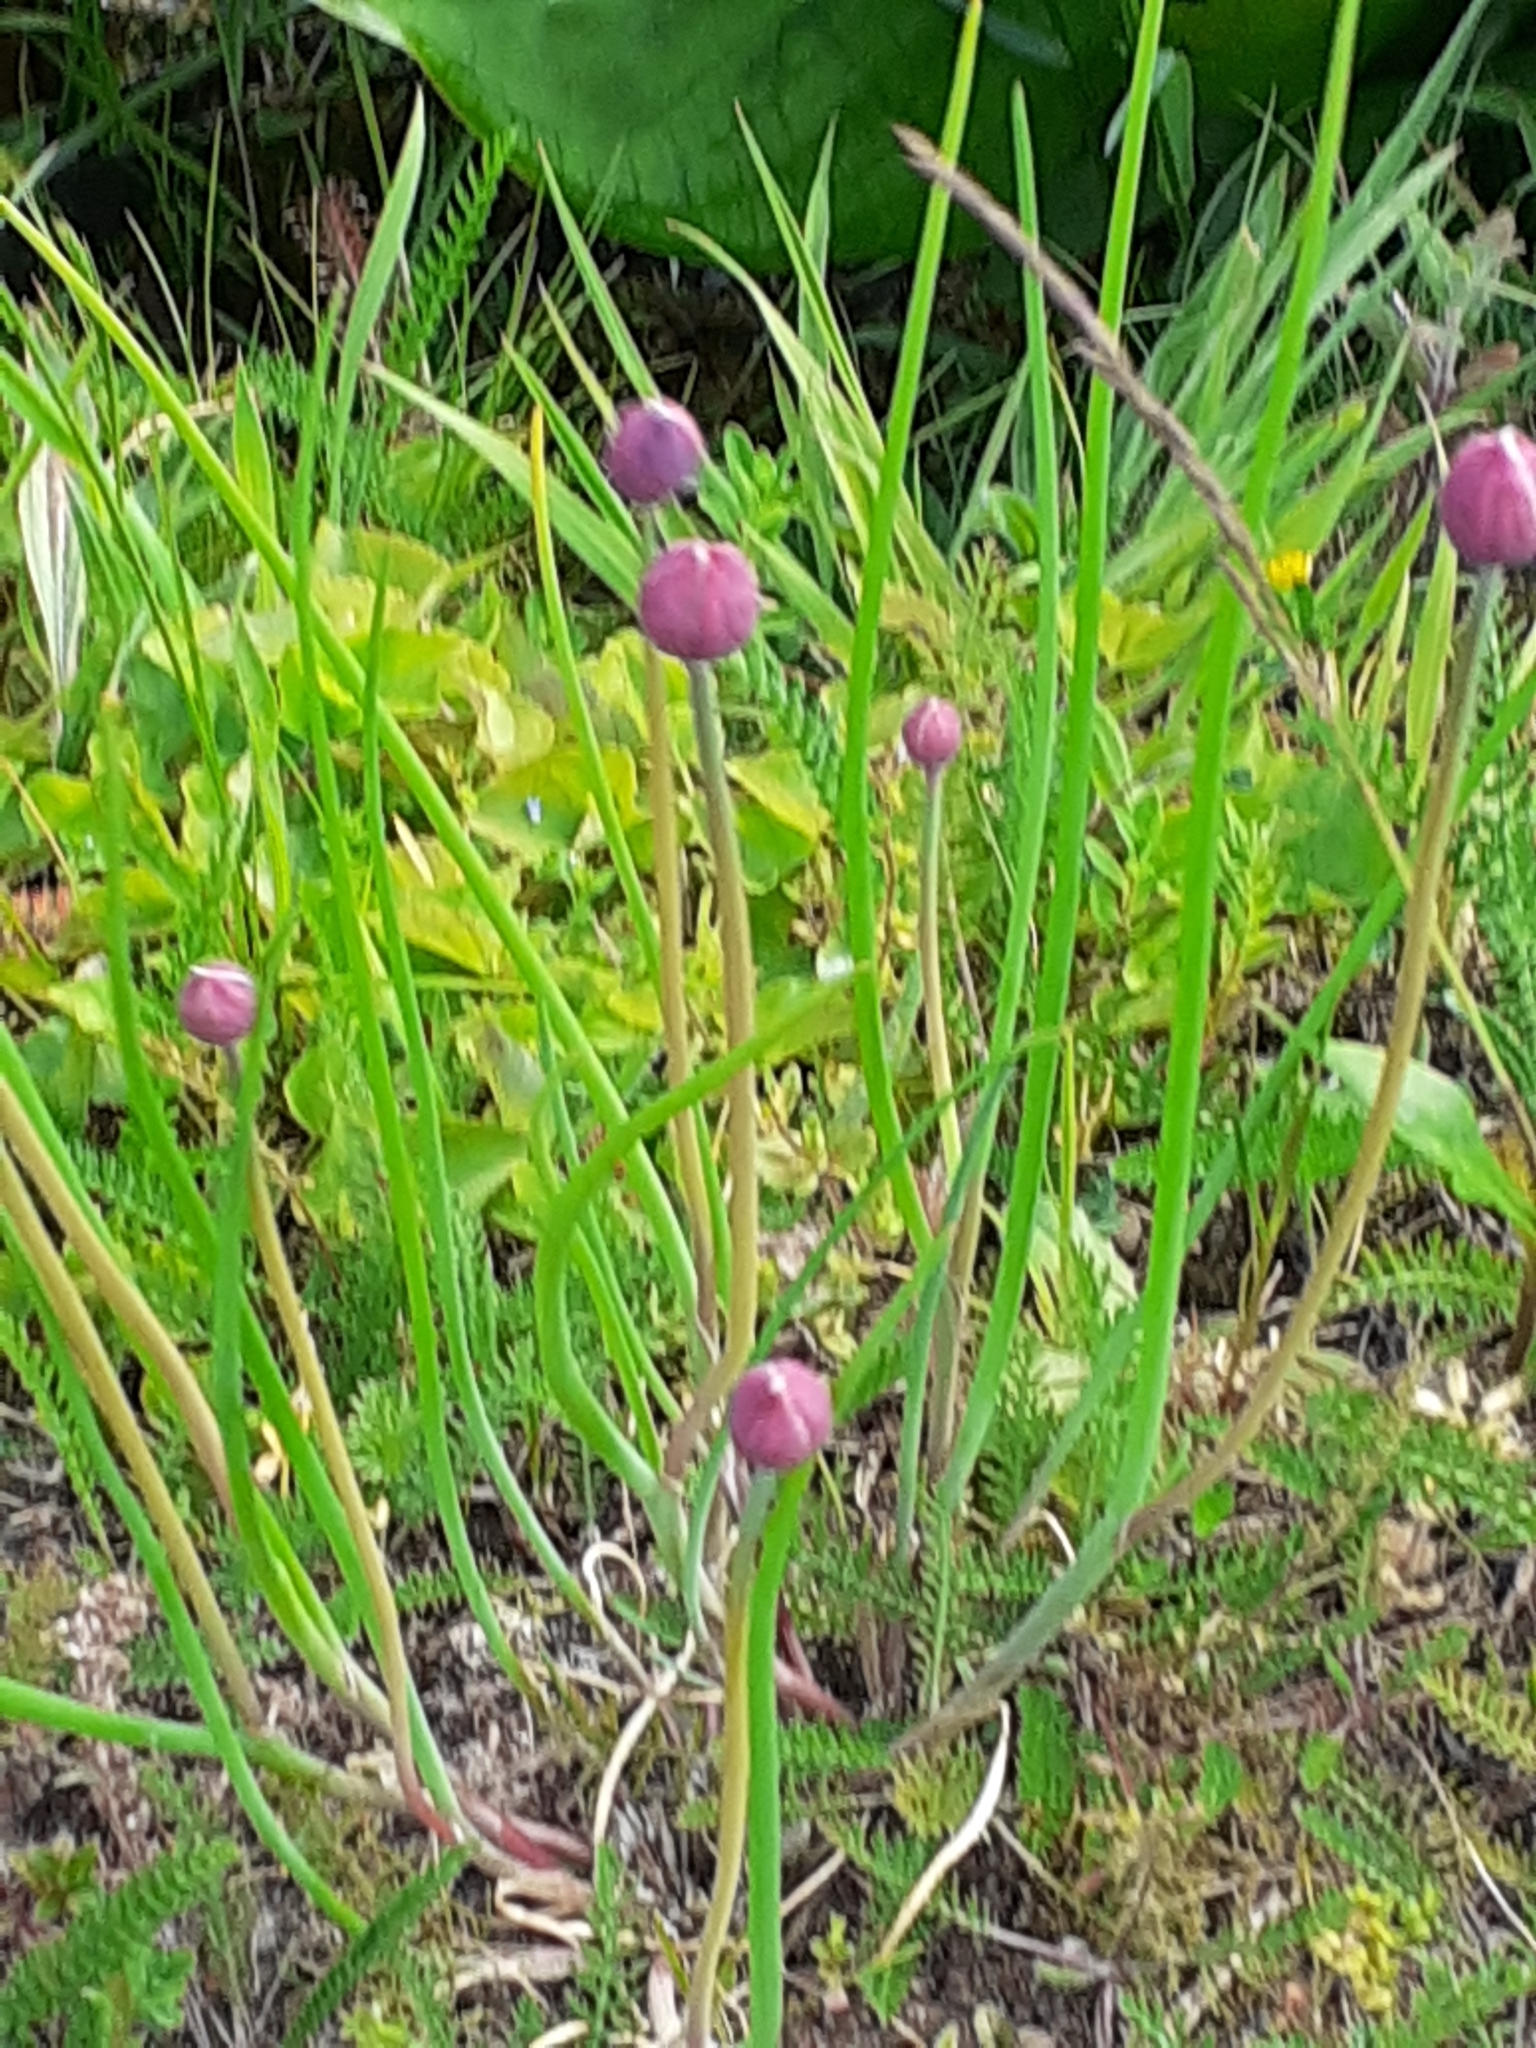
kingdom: Plantae
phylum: Tracheophyta
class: Liliopsida
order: Asparagales
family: Amaryllidaceae
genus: Allium
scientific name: Allium schoenoprasum
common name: Chives
